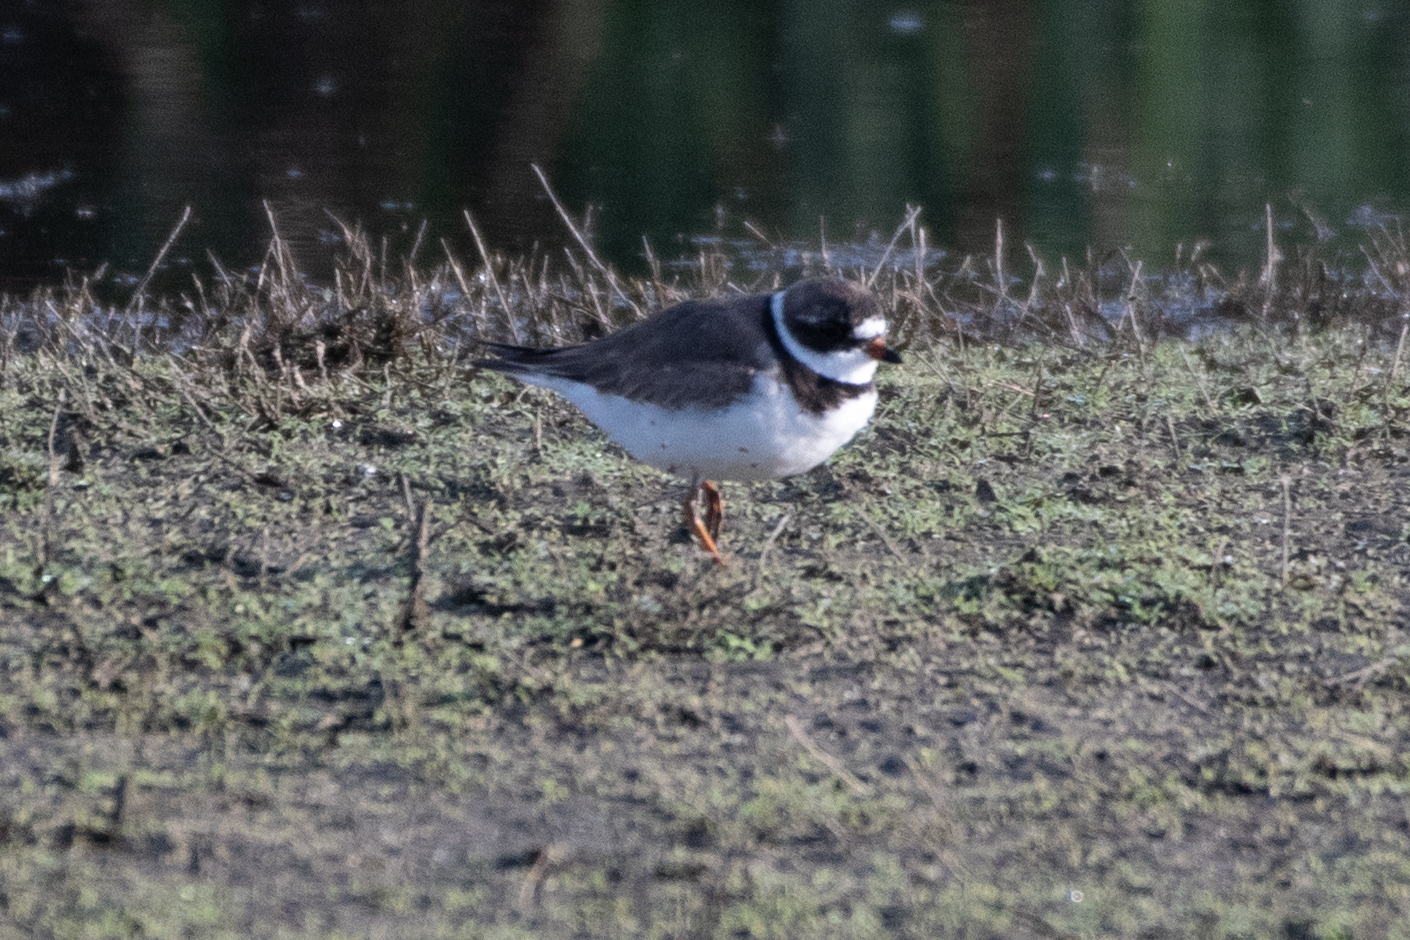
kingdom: Animalia
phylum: Chordata
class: Aves
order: Charadriiformes
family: Charadriidae
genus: Charadrius
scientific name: Charadrius semipalmatus
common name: Semipalmated plover
